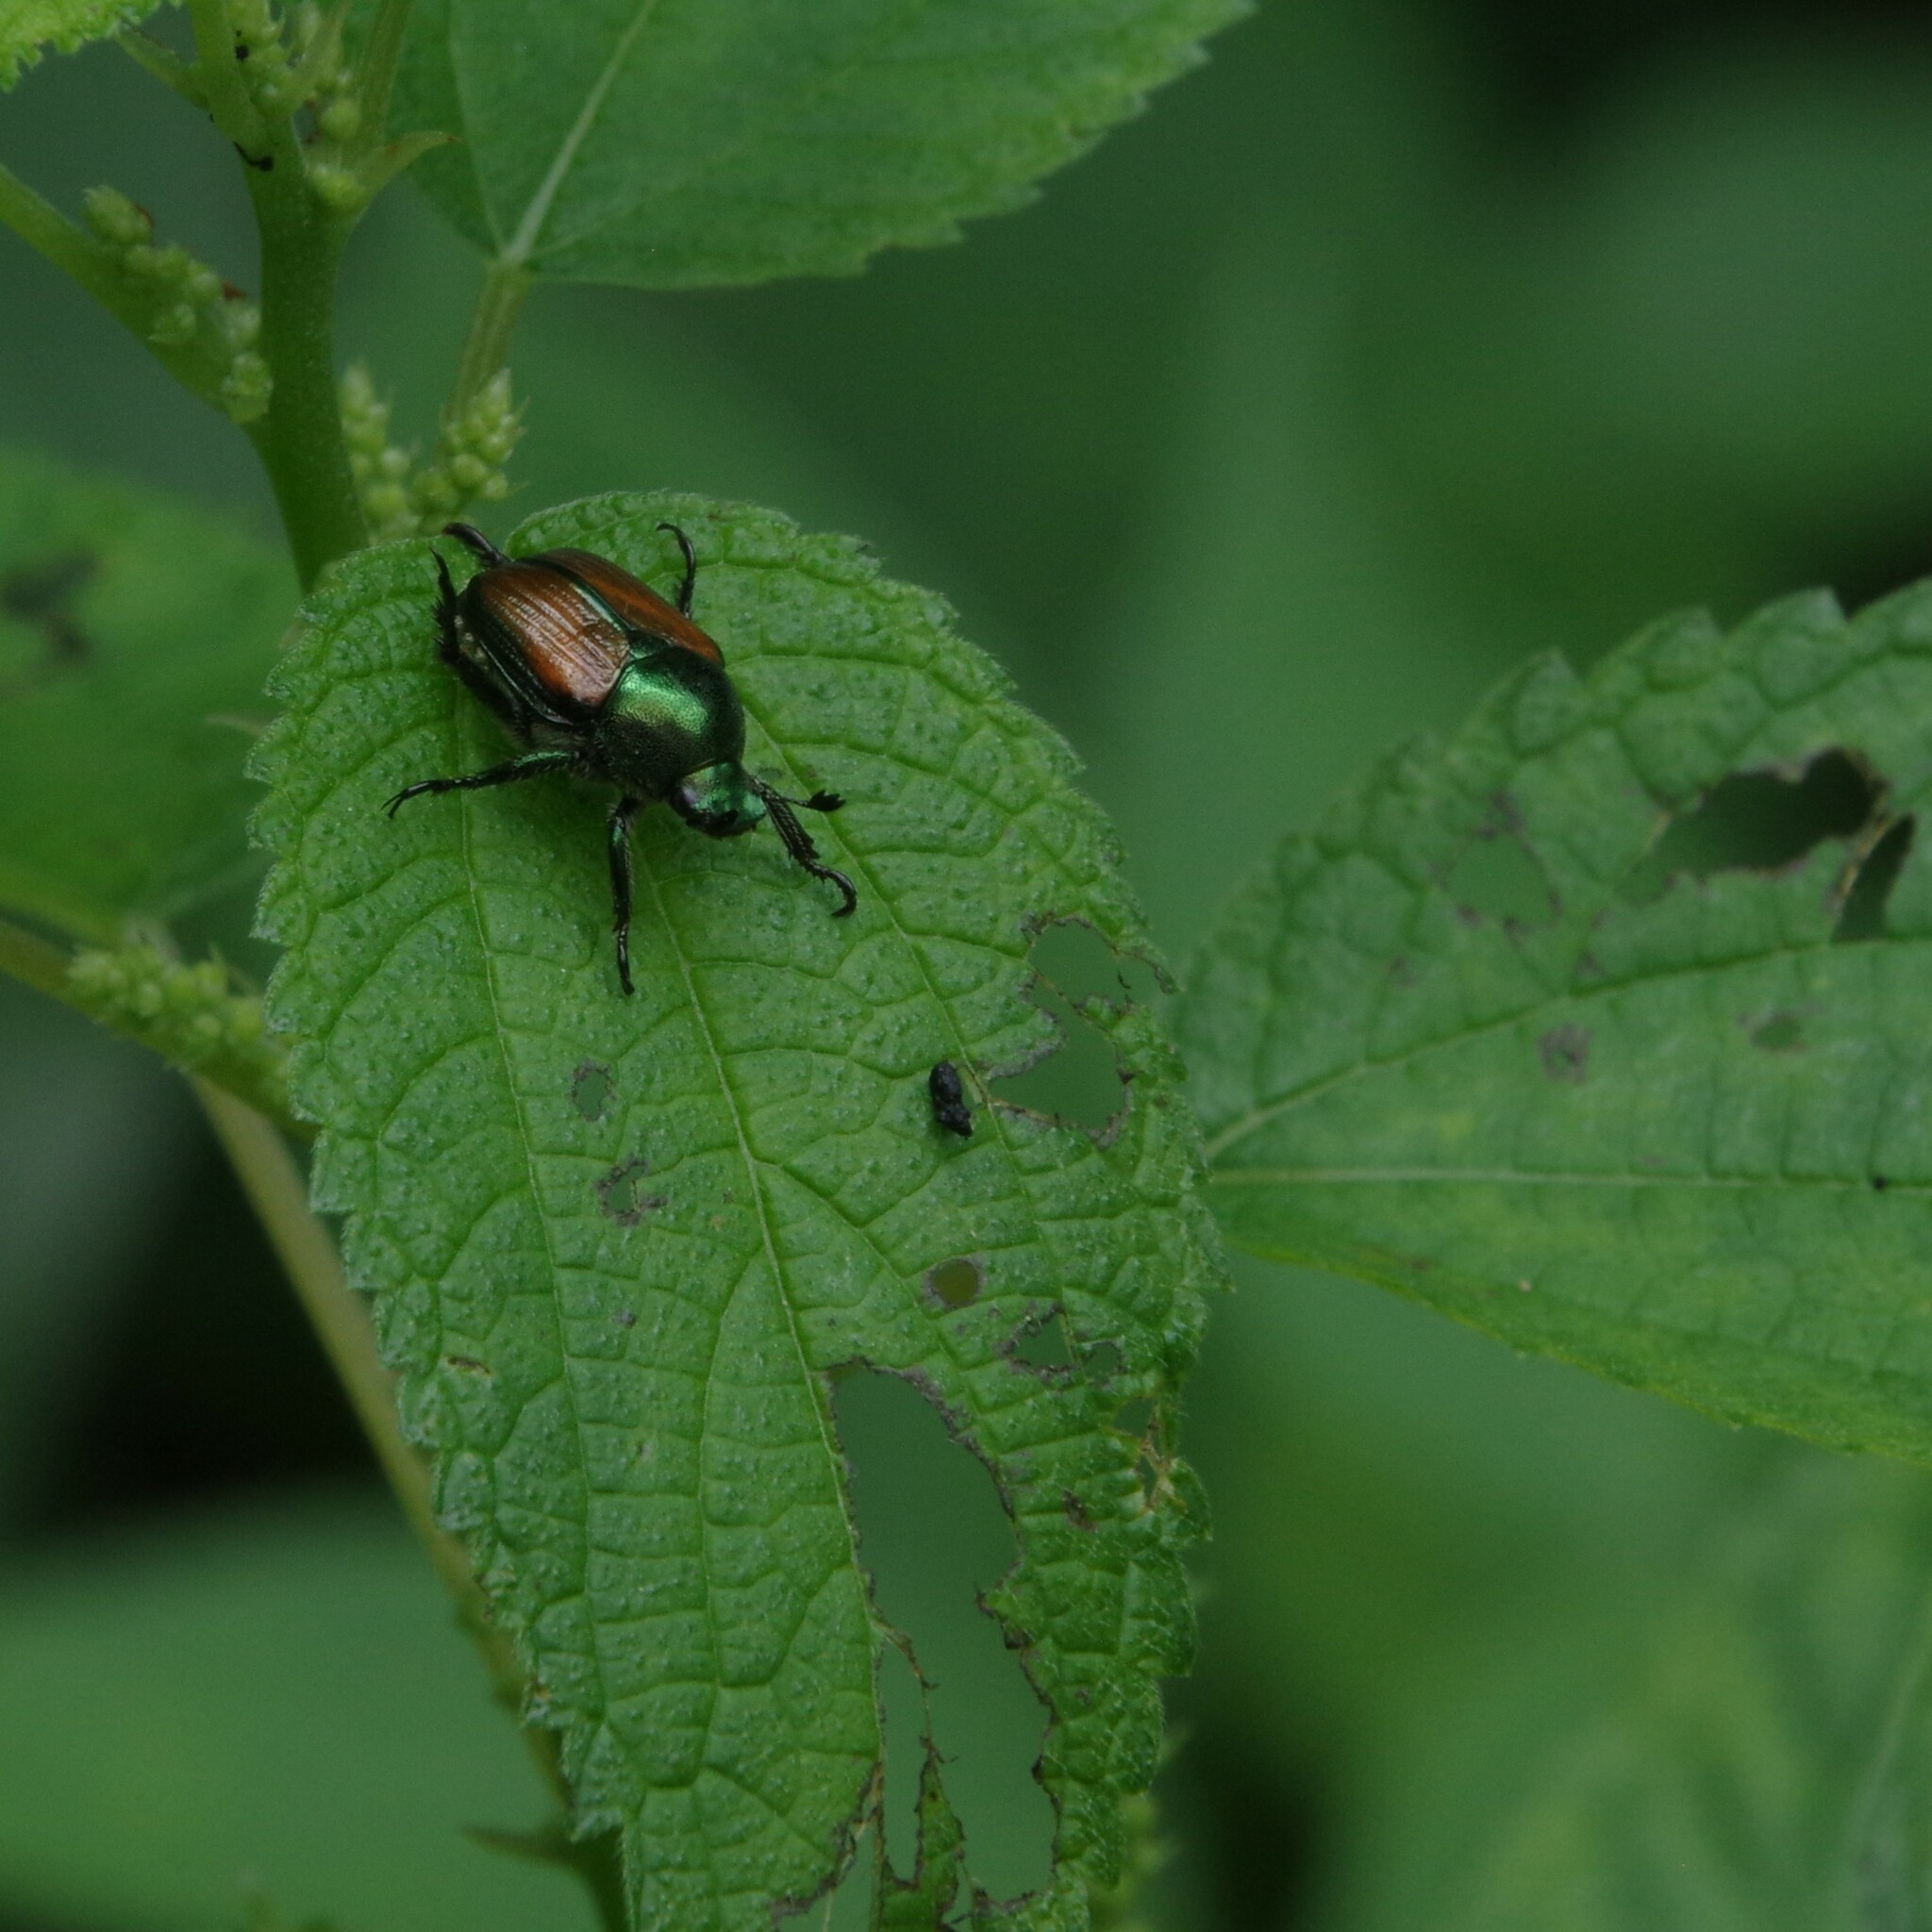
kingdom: Animalia
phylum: Arthropoda
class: Insecta
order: Coleoptera
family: Scarabaeidae
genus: Popillia
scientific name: Popillia japonica
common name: Japanese beetle
